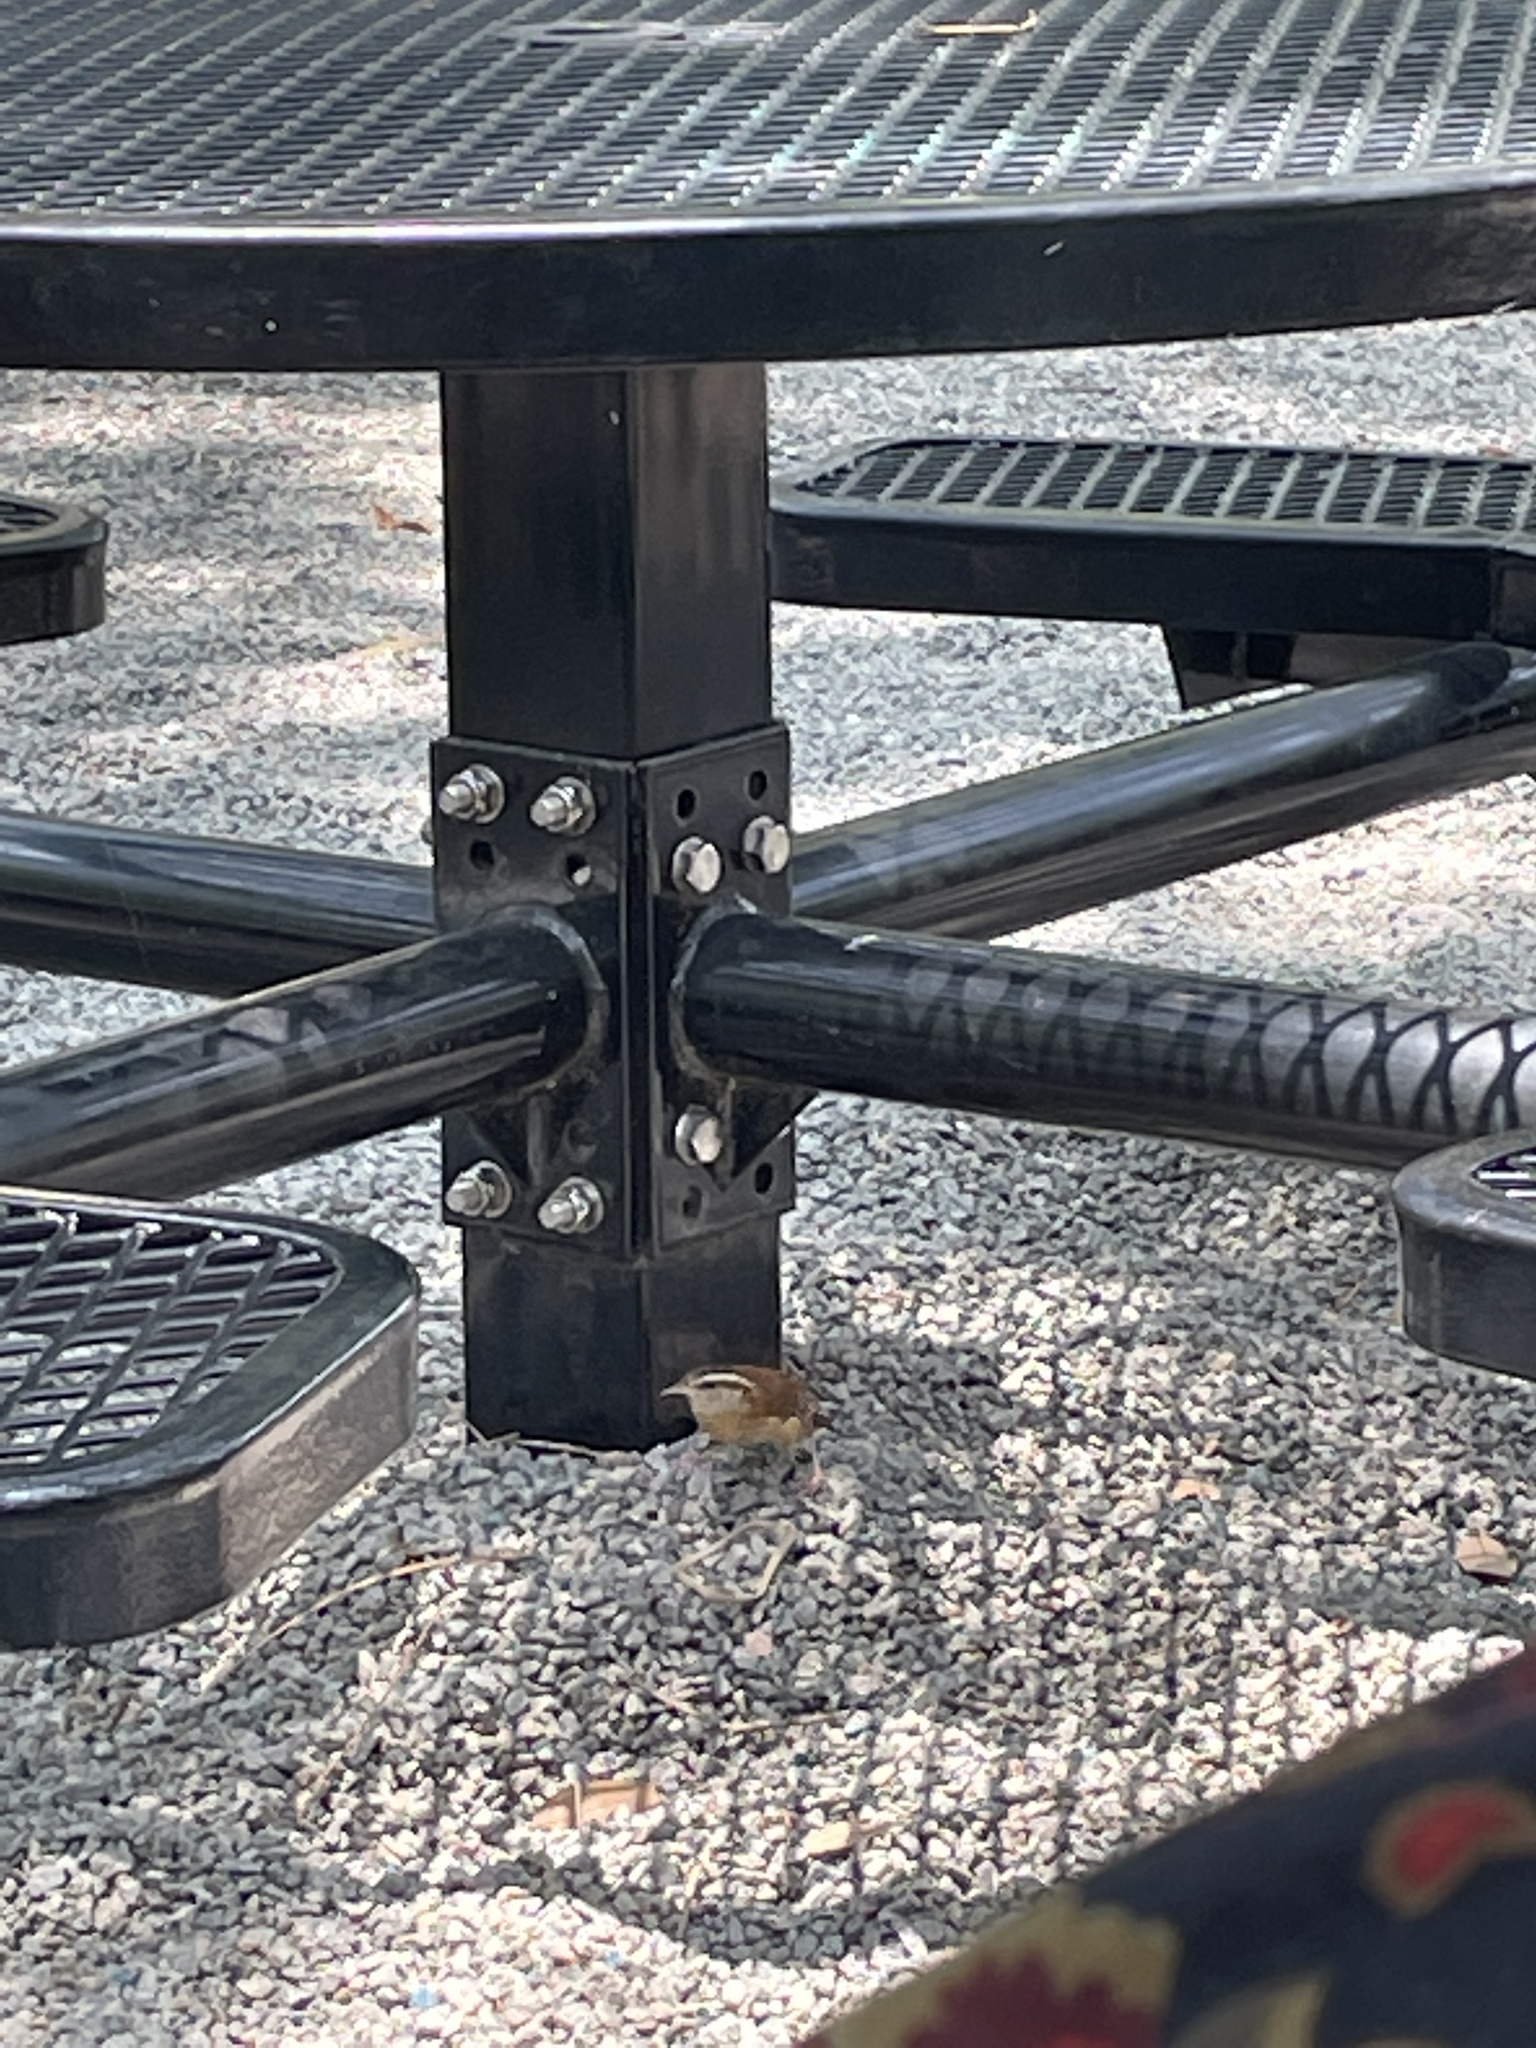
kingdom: Animalia
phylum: Chordata
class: Aves
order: Passeriformes
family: Troglodytidae
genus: Thryothorus
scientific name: Thryothorus ludovicianus
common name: Carolina wren
